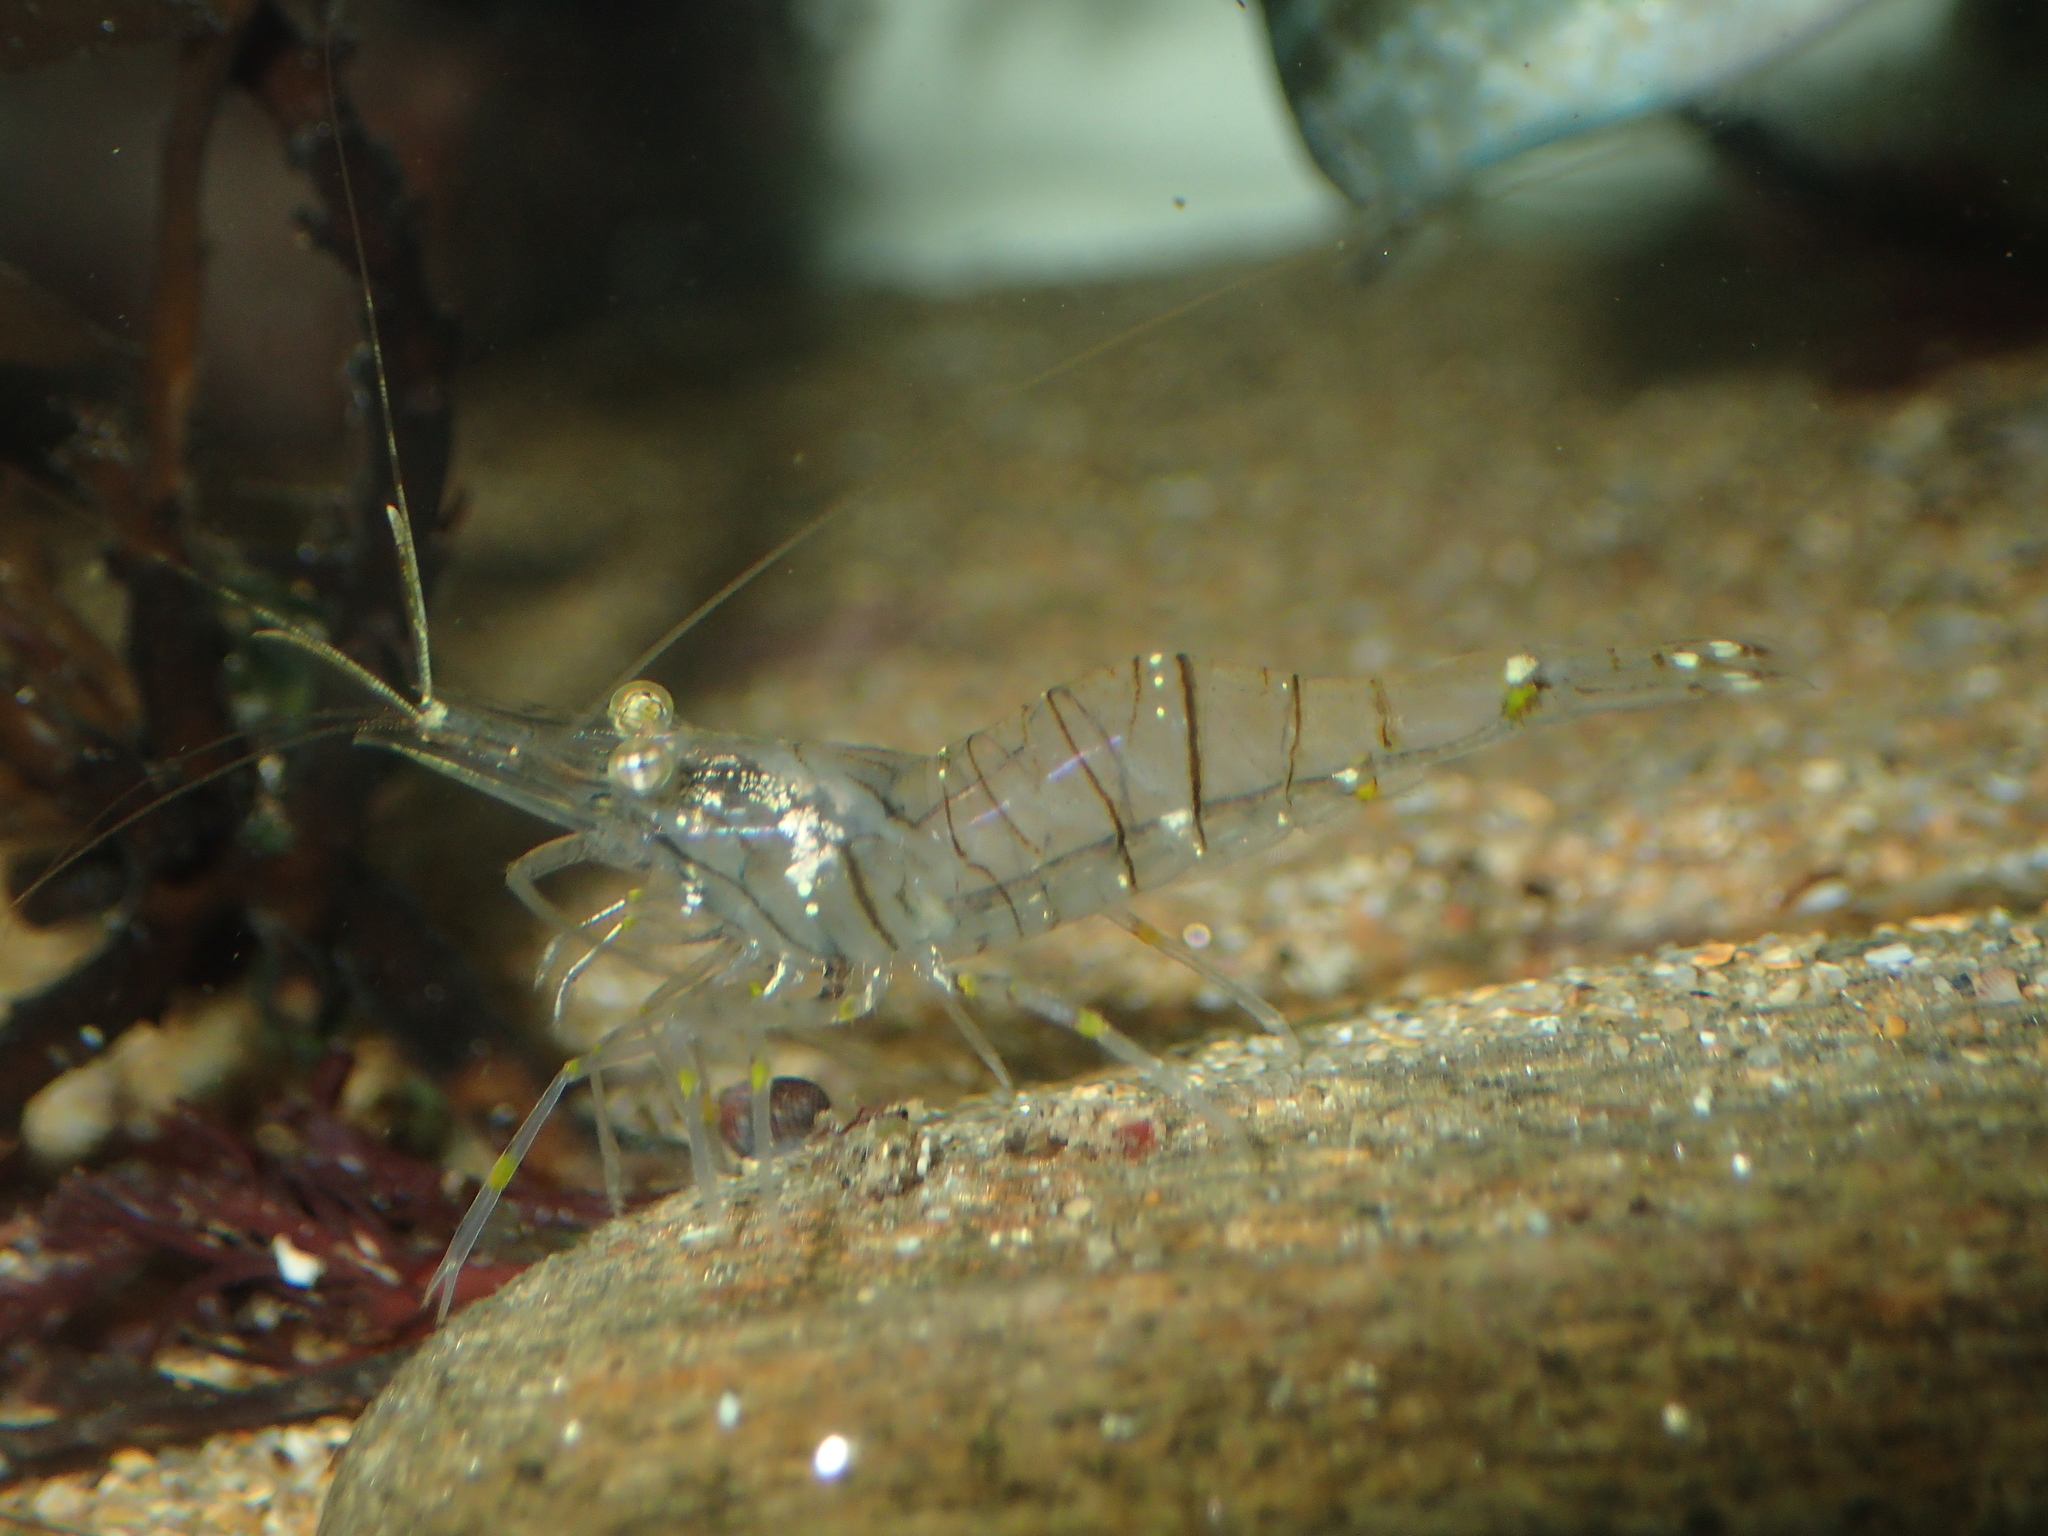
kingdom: Animalia
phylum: Arthropoda
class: Malacostraca
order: Decapoda
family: Palaemonidae
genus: Palaemon
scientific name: Palaemon elegans
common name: Grass prawm
